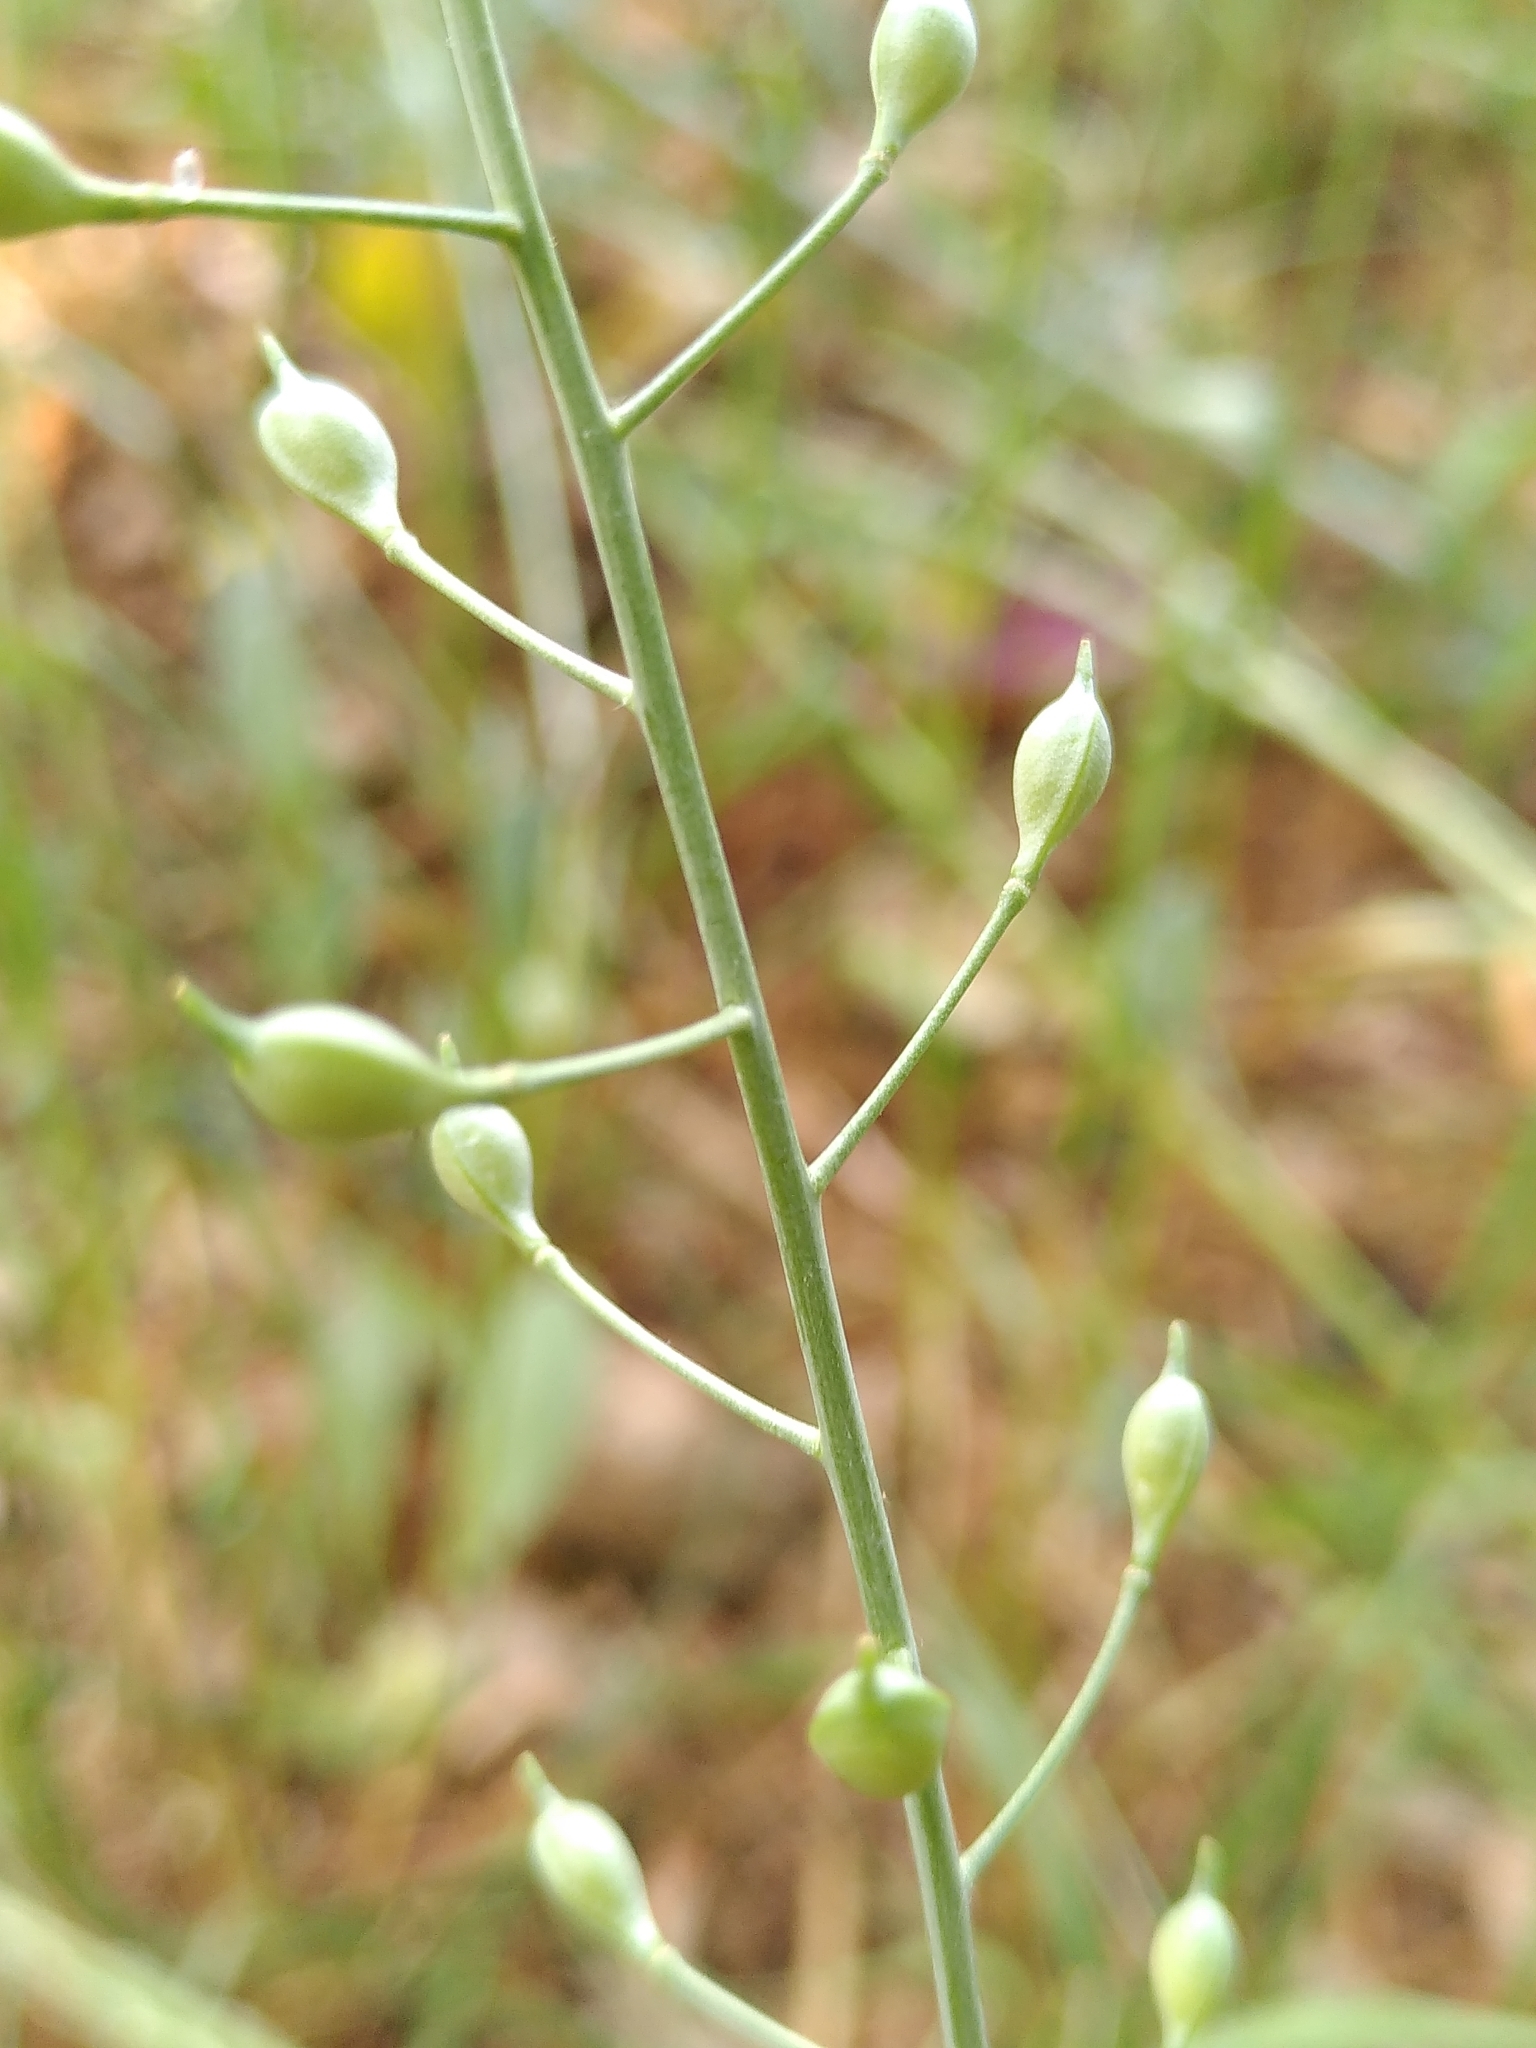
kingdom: Plantae
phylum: Tracheophyta
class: Magnoliopsida
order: Fabales
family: Fabaceae
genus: Coronilla
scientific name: Coronilla scorpioides
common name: Annual scorpion-vetch
